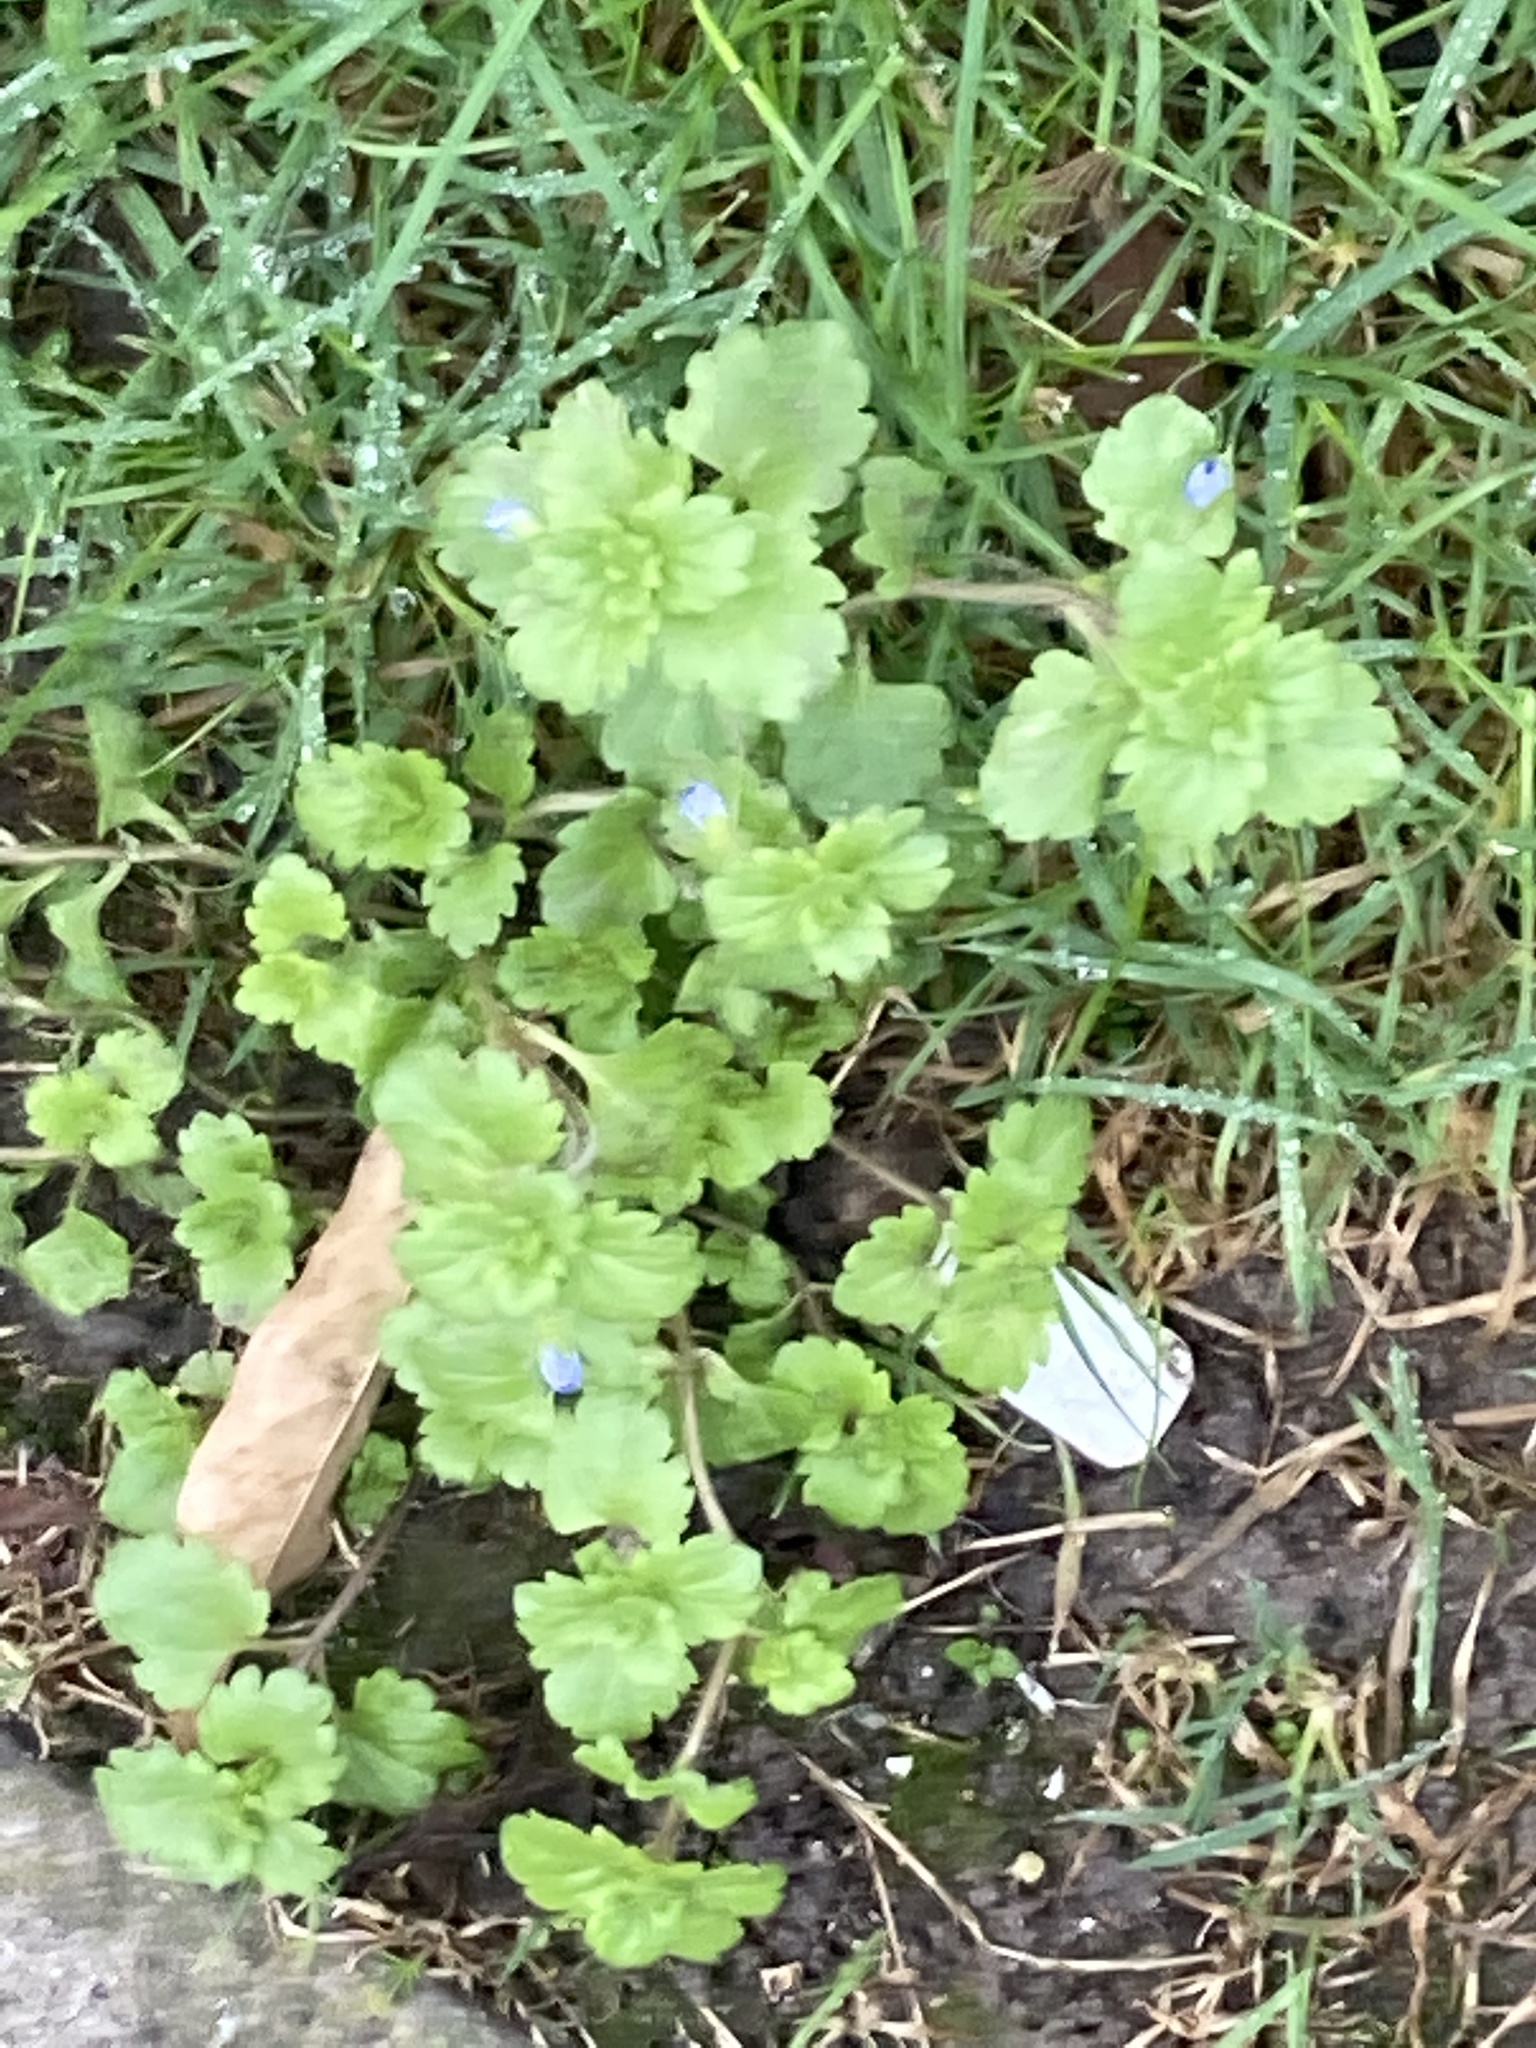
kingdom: Plantae
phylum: Tracheophyta
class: Magnoliopsida
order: Lamiales
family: Plantaginaceae
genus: Veronica
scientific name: Veronica persica
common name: Common field-speedwell
